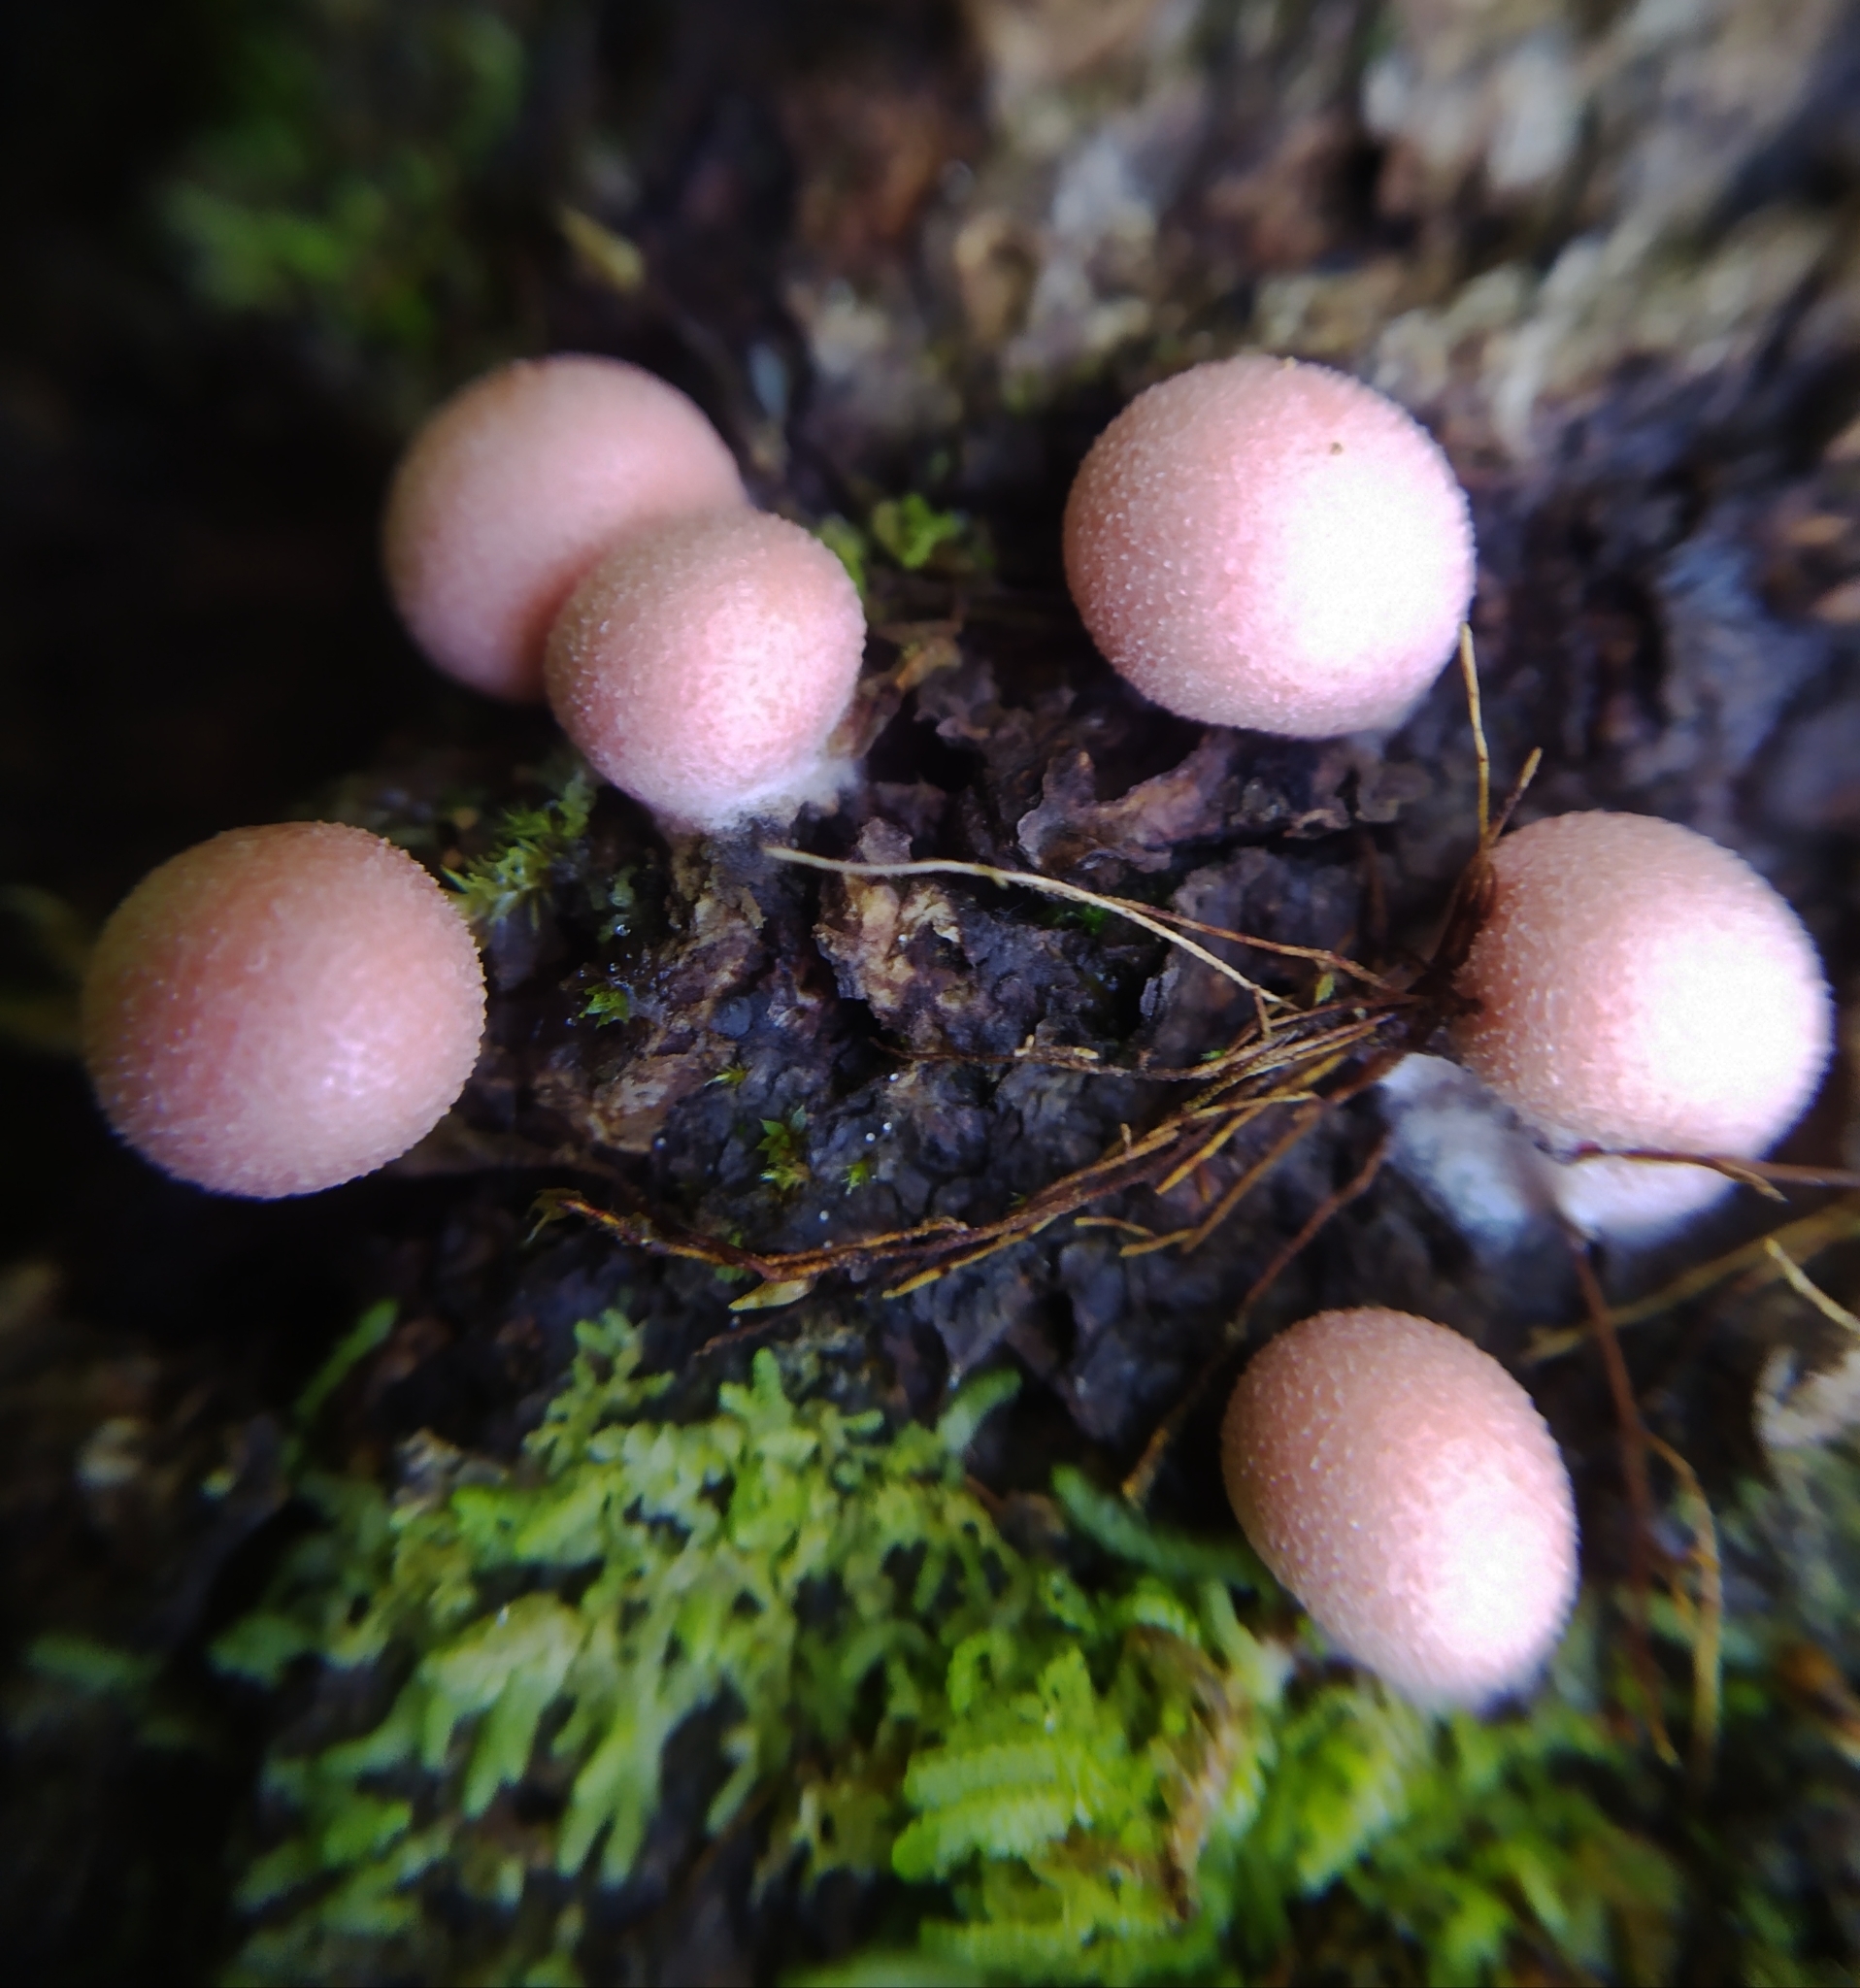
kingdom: Protozoa
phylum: Mycetozoa
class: Myxomycetes
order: Cribrariales
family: Tubiferaceae
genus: Lycogala
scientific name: Lycogala epidendrum
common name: Wolf's milk
